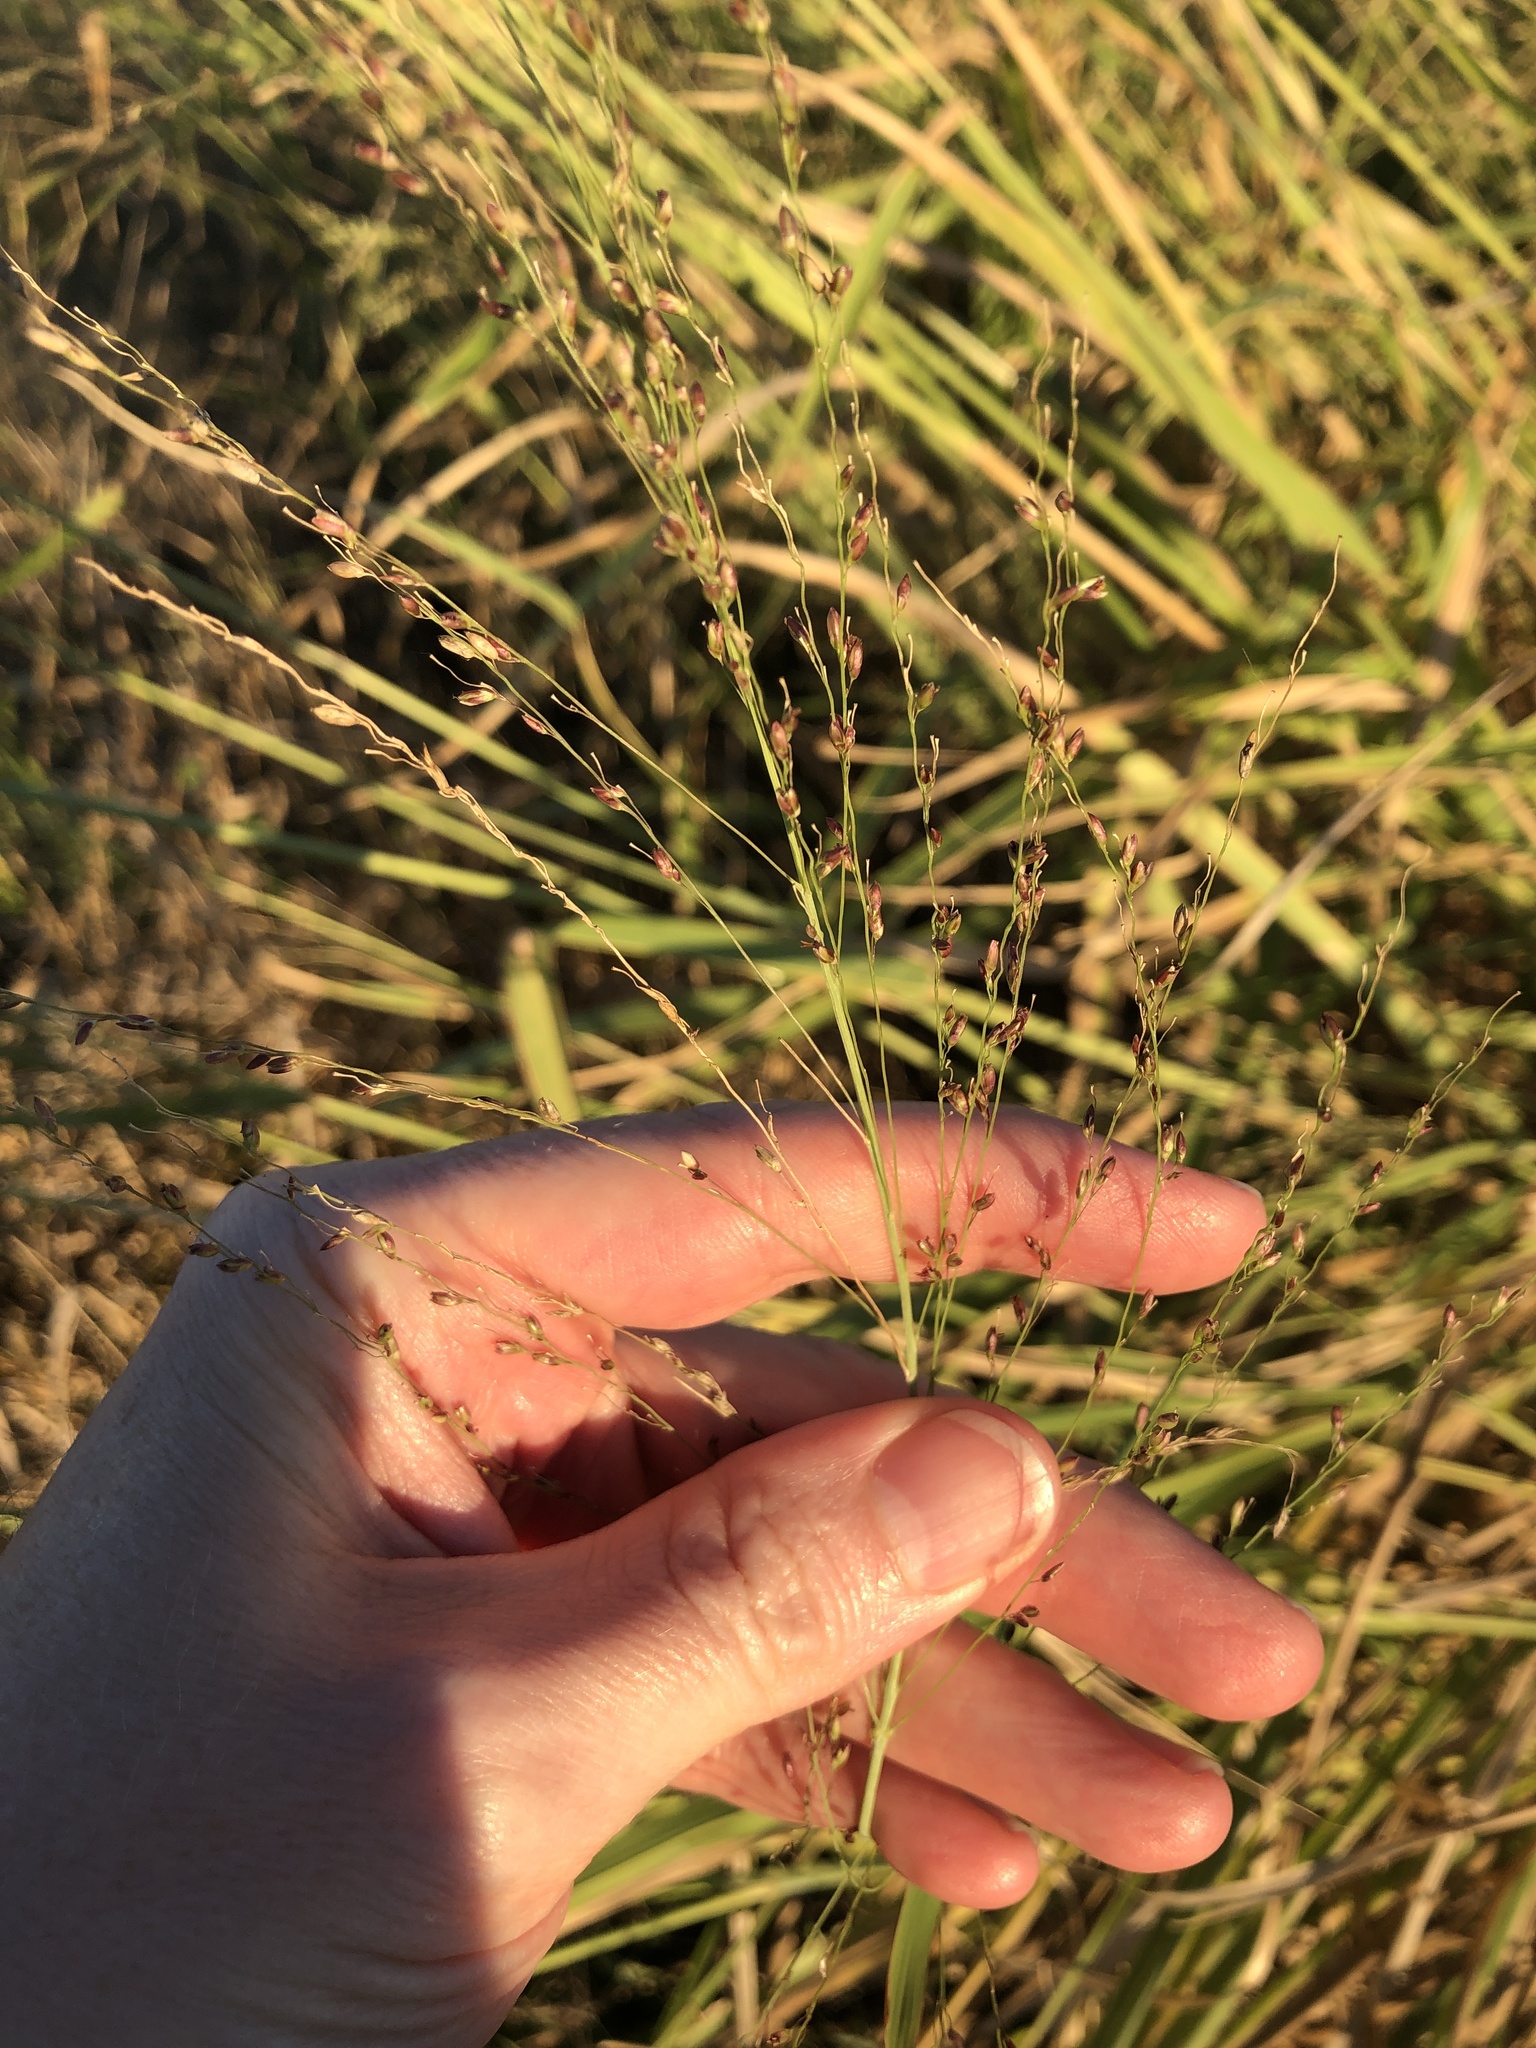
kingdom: Plantae
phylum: Tracheophyta
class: Liliopsida
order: Poales
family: Poaceae
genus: Megathyrsus
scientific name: Megathyrsus maximus
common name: Guineagrass
